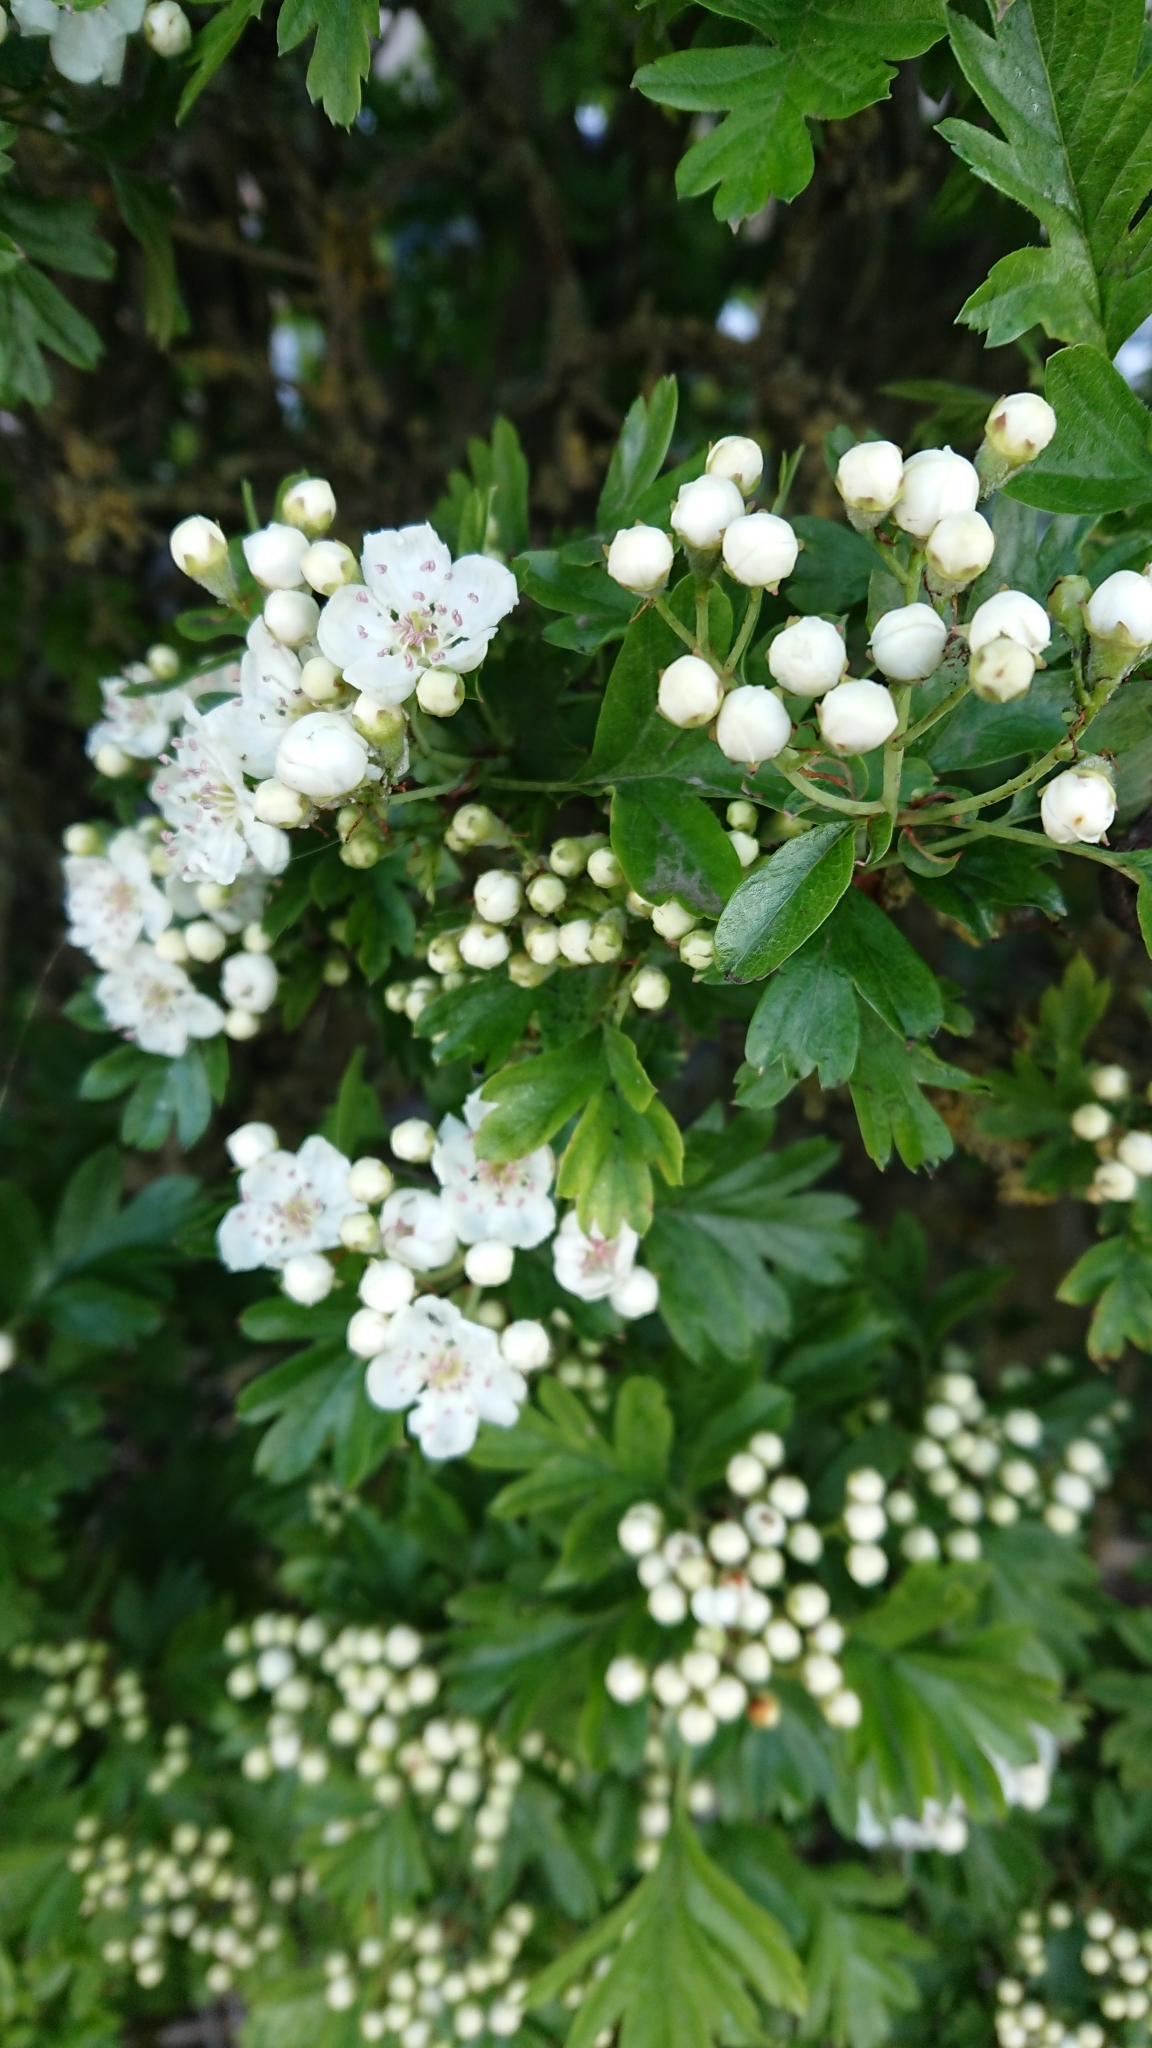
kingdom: Plantae
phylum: Tracheophyta
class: Magnoliopsida
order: Rosales
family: Rosaceae
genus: Crataegus
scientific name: Crataegus monogyna
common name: Hawthorn
